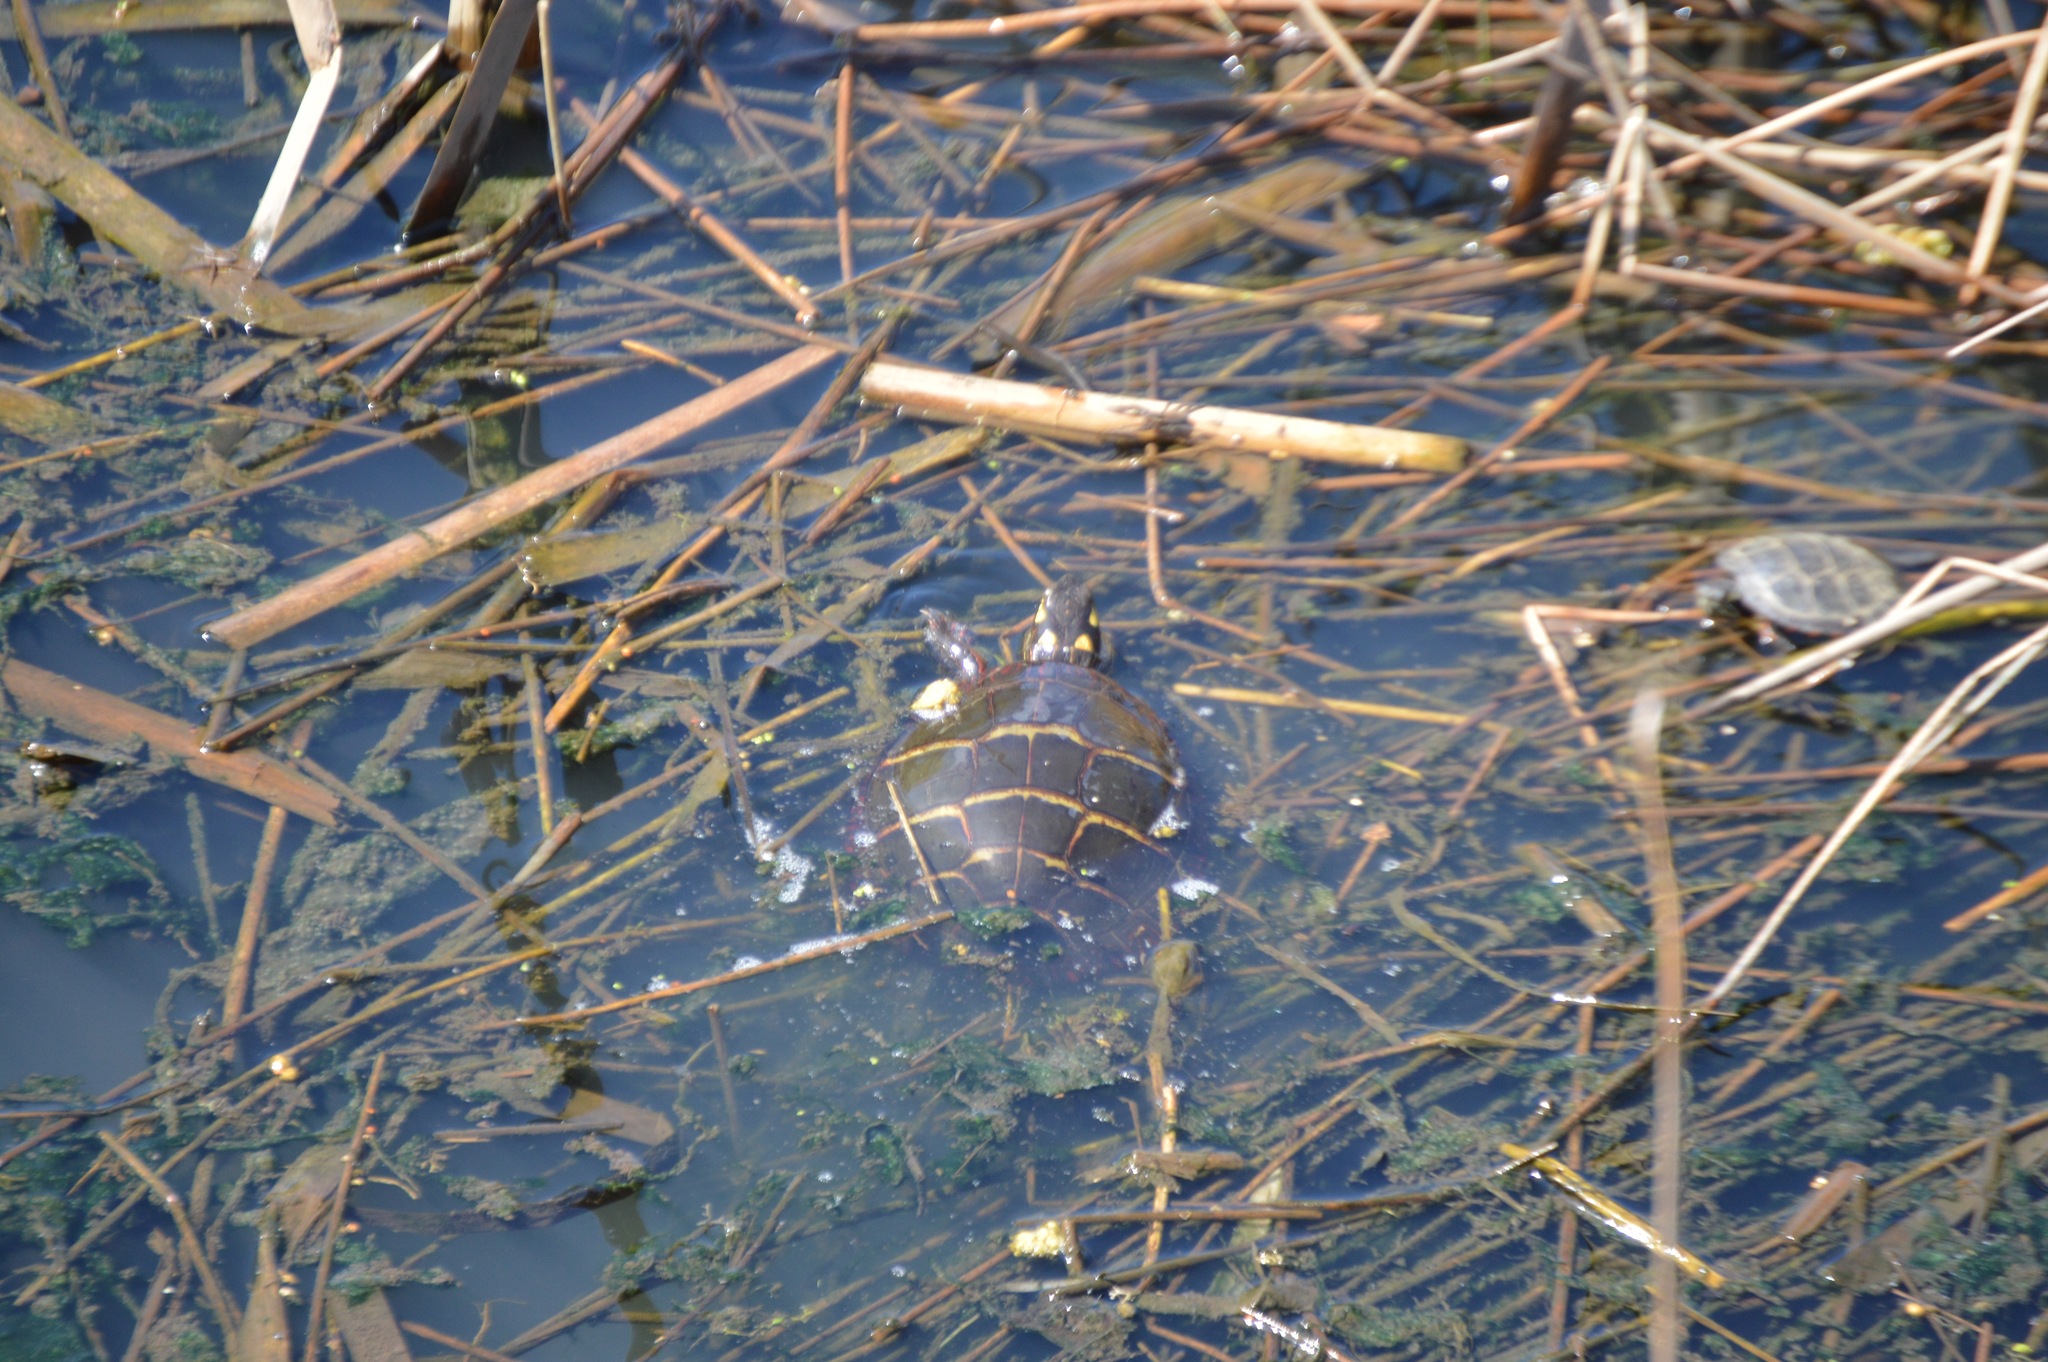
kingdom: Animalia
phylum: Chordata
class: Testudines
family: Emydidae
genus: Chrysemys
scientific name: Chrysemys picta
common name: Painted turtle
